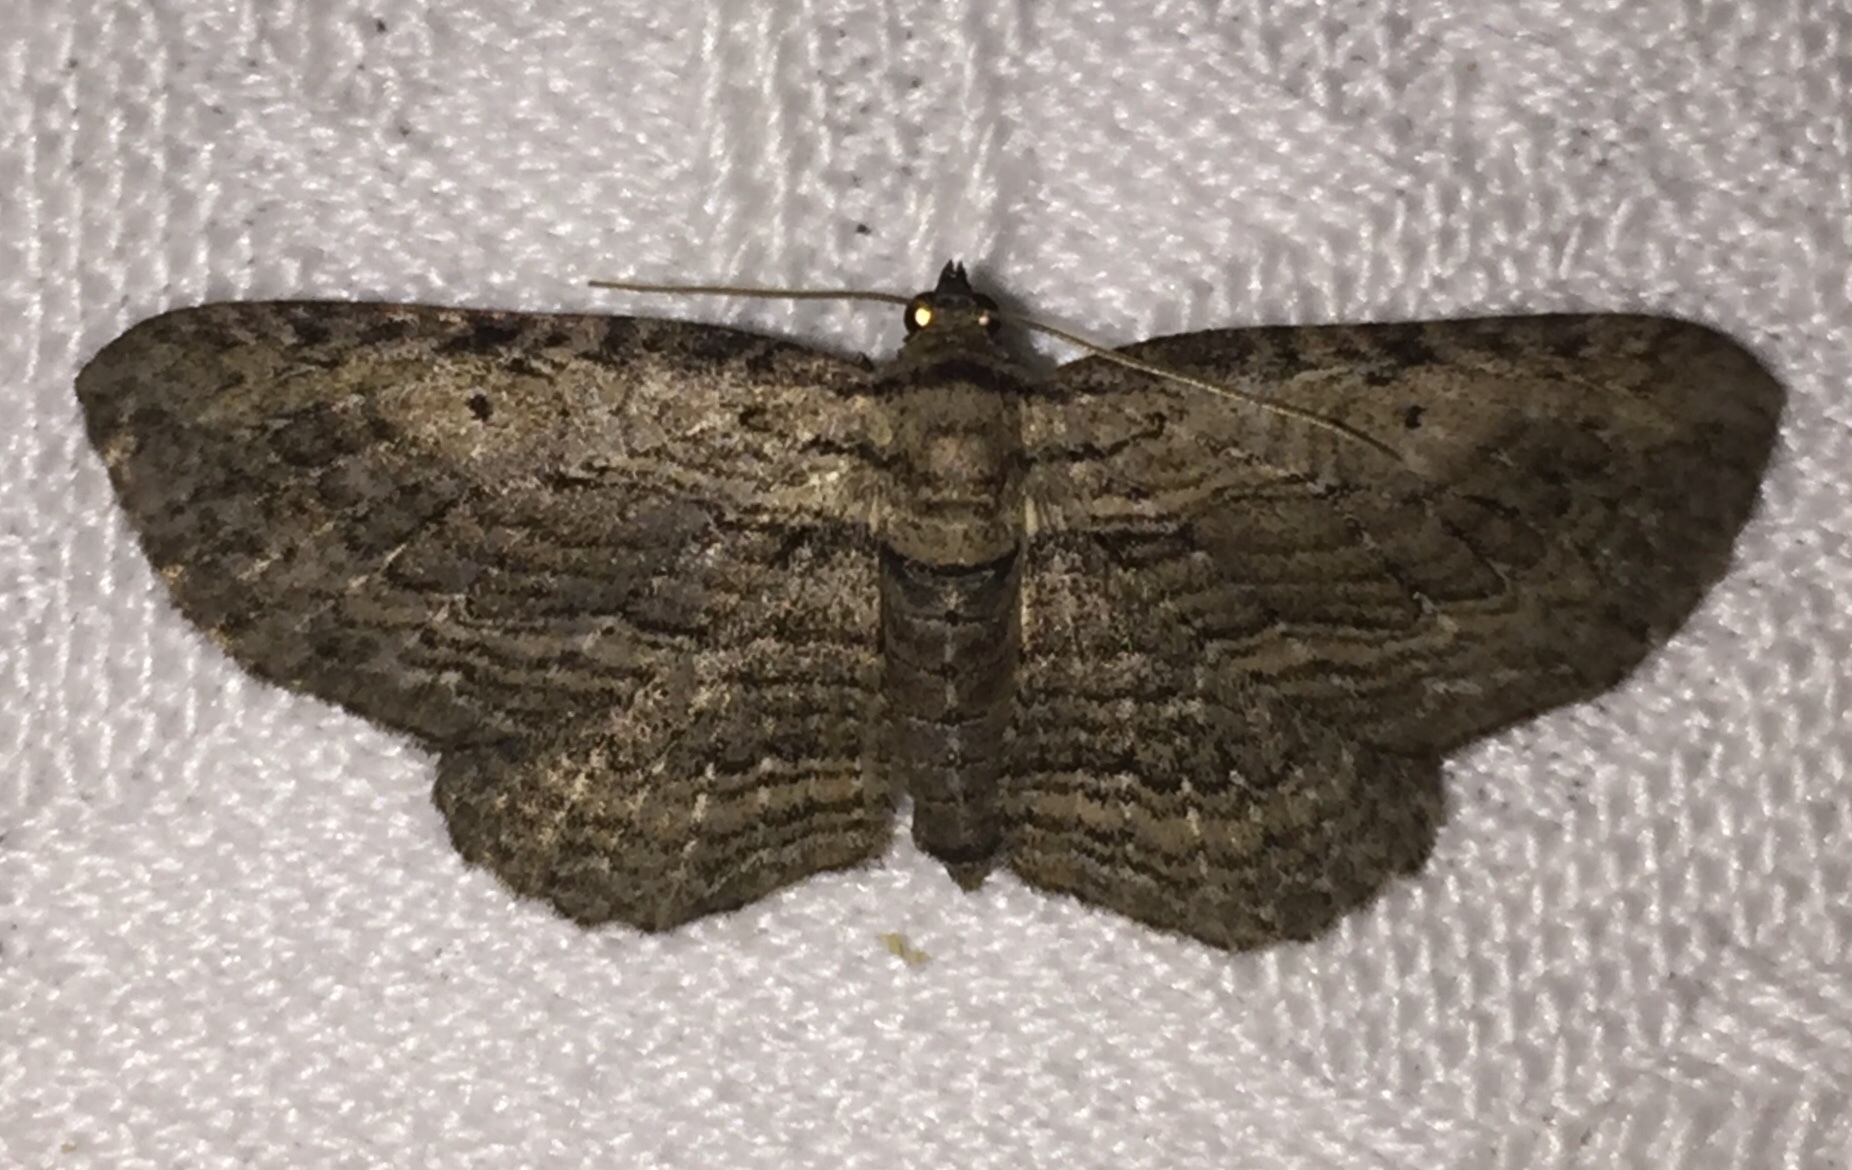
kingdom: Animalia
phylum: Arthropoda
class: Insecta
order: Lepidoptera
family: Geometridae
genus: Horisme
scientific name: Horisme intestinata
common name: Brown bark carpet
